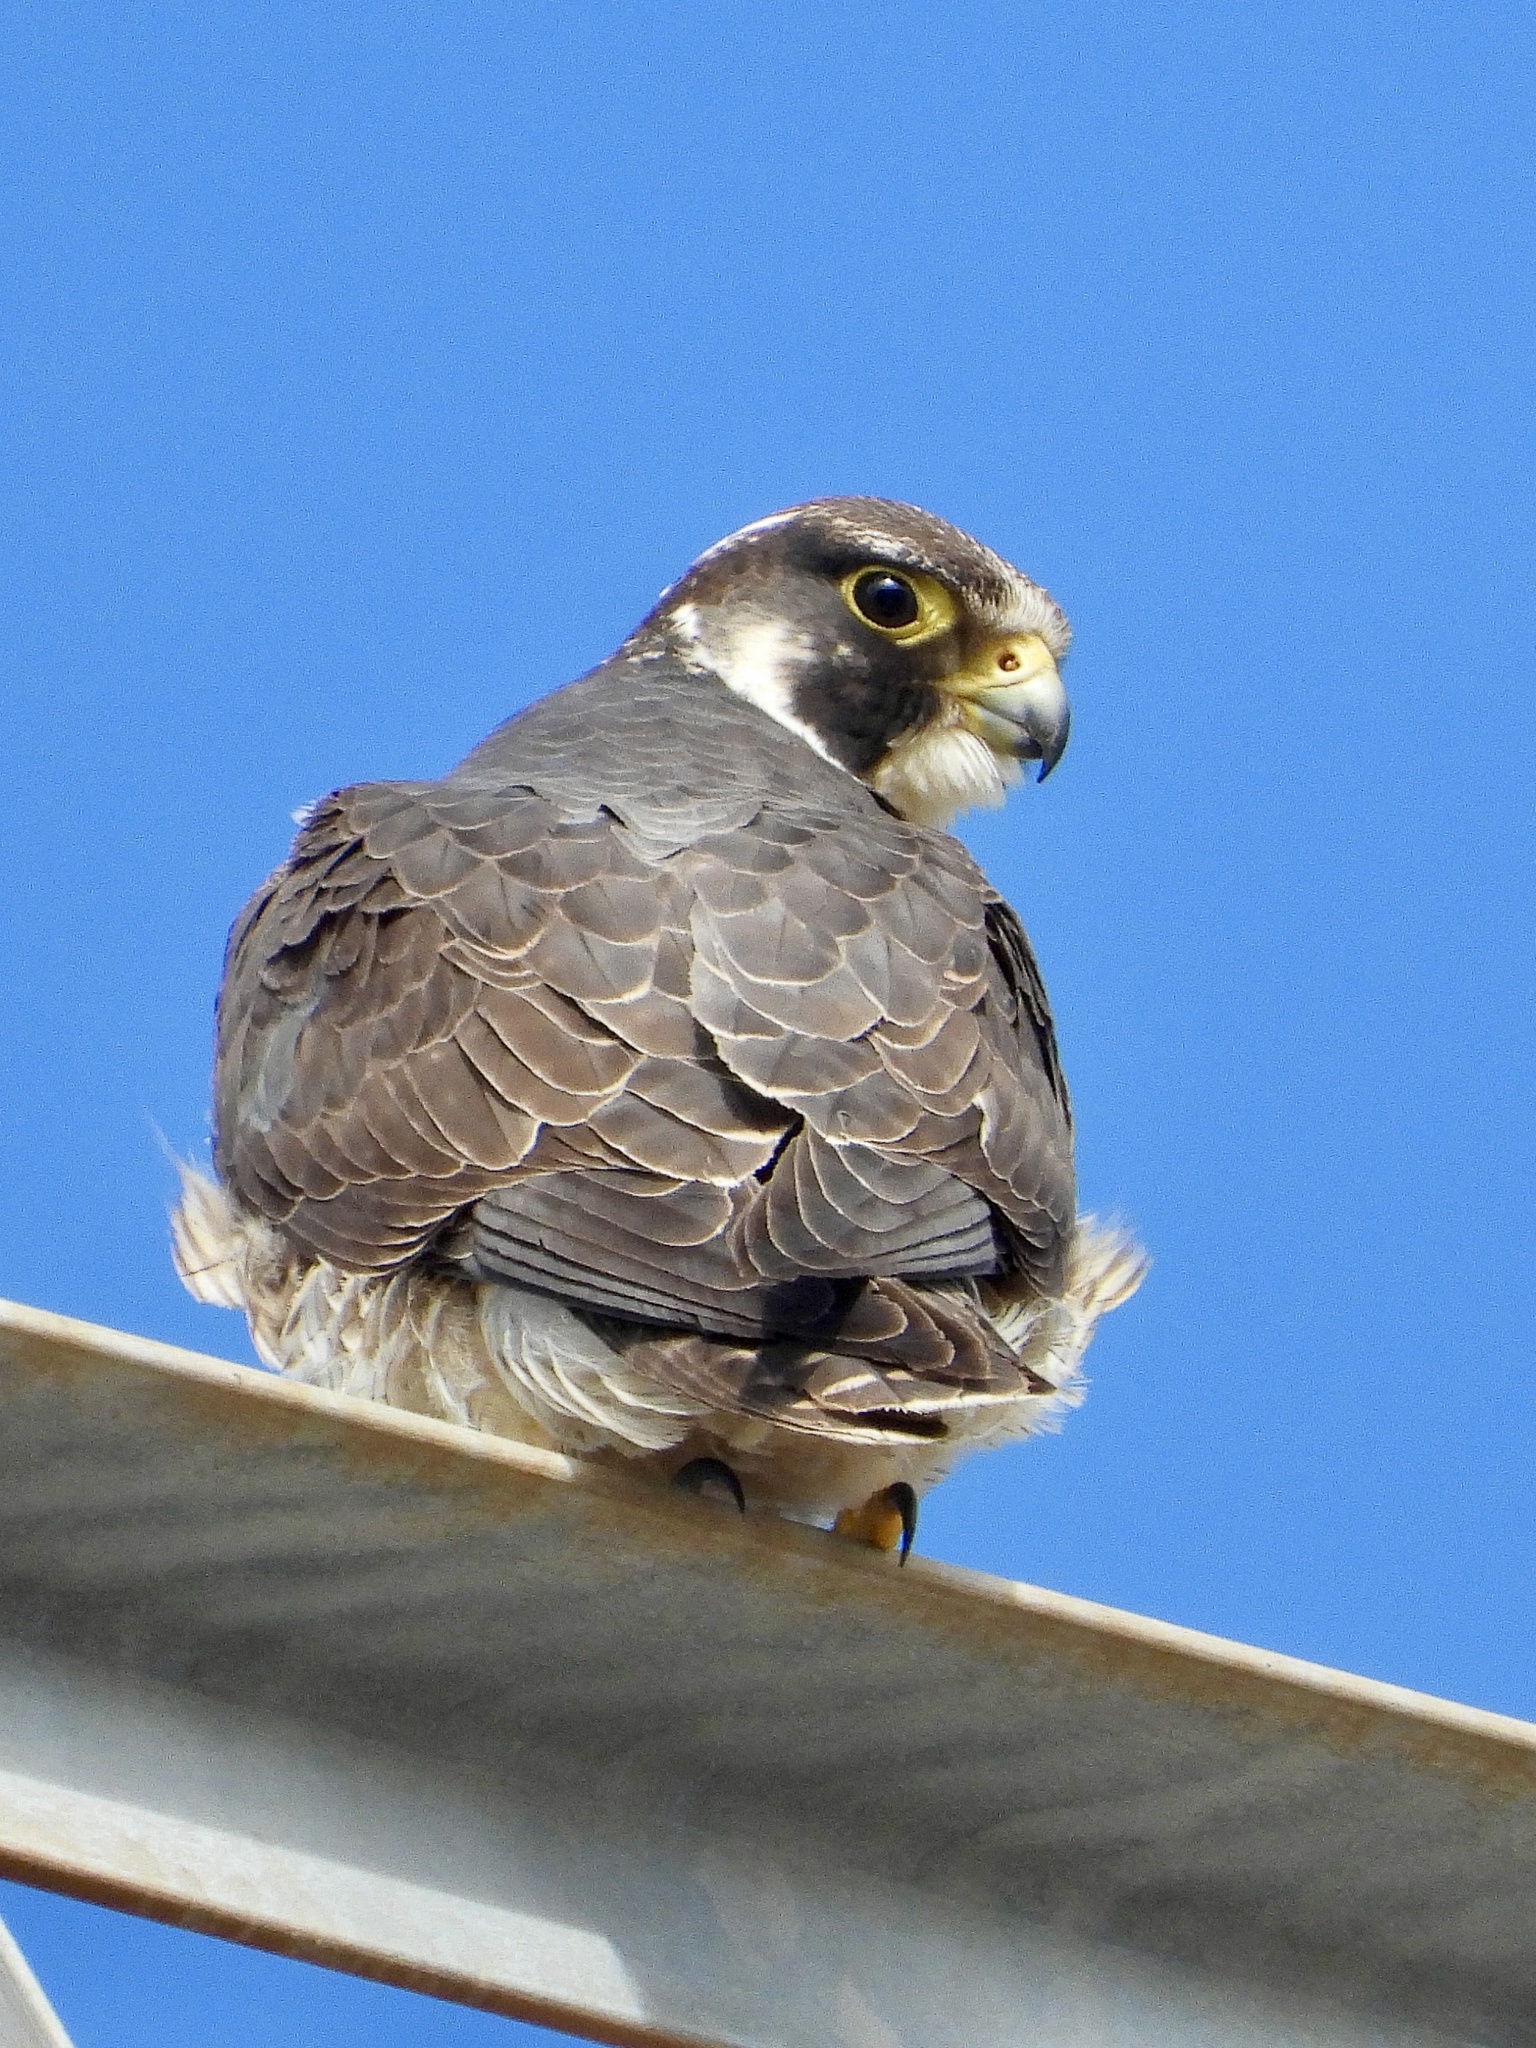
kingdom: Animalia
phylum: Chordata
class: Aves
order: Falconiformes
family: Falconidae
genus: Falco
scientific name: Falco peregrinus
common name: Peregrine falcon
